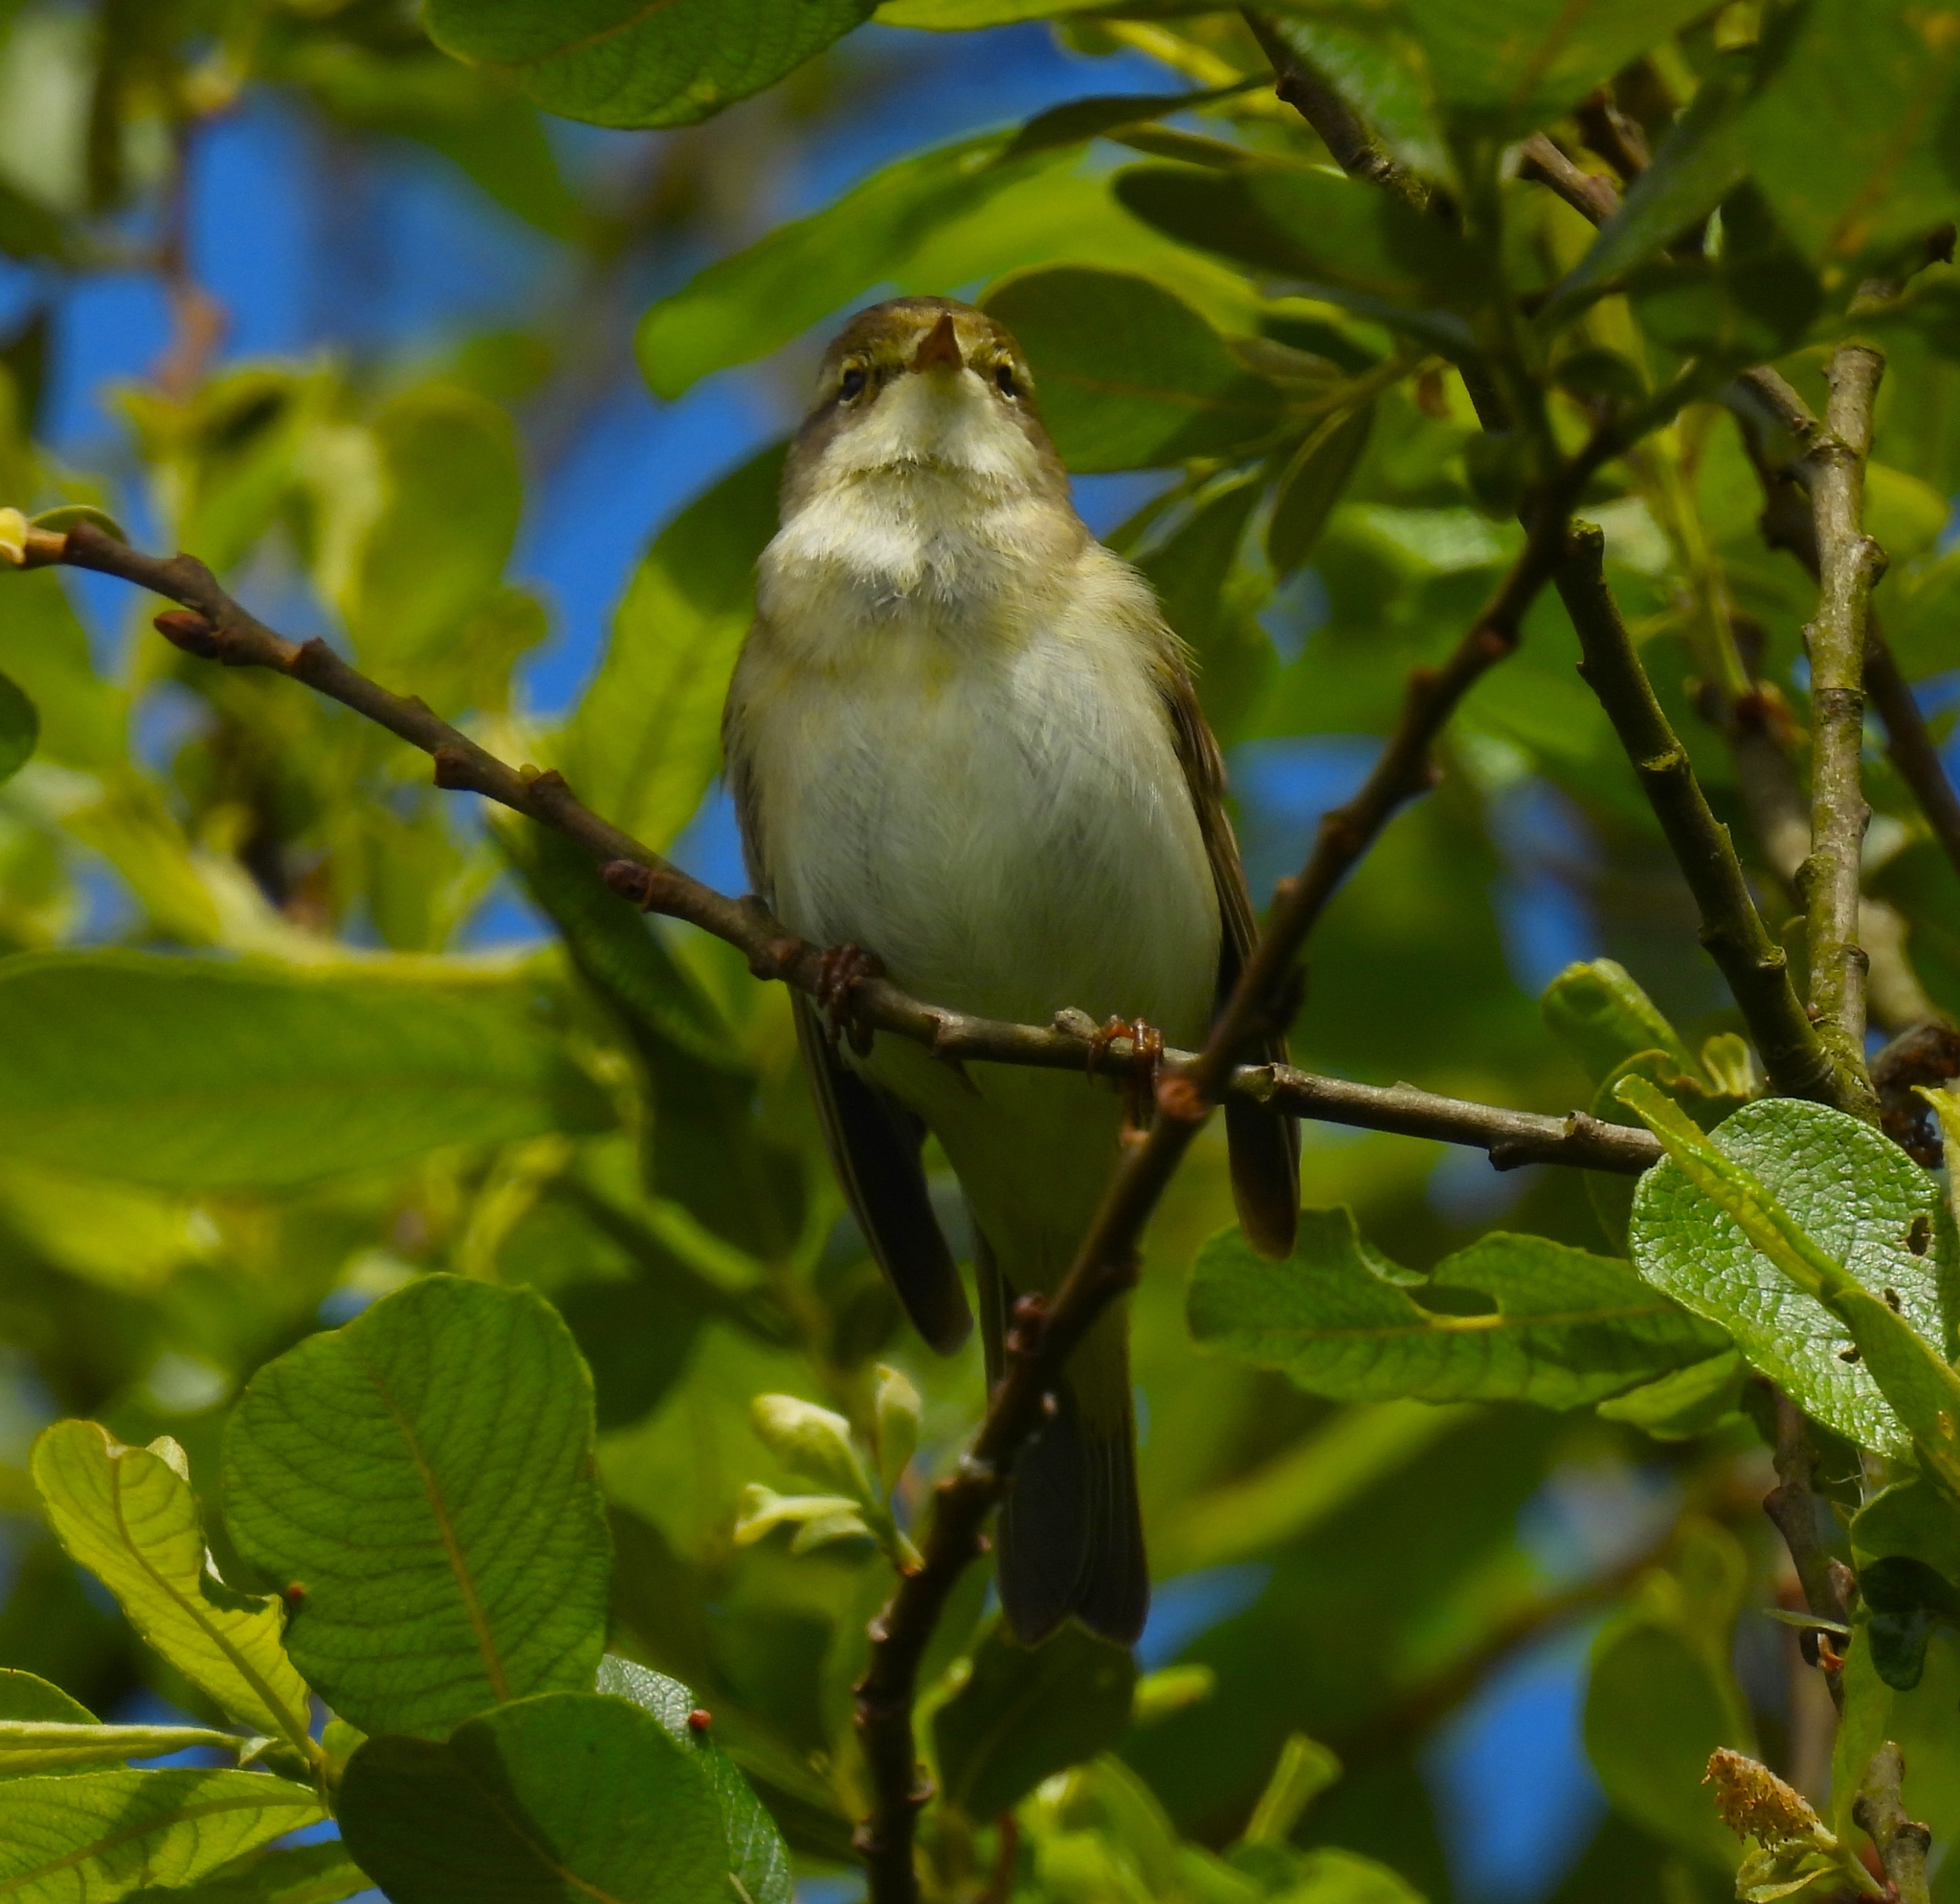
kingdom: Animalia
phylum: Chordata
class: Aves
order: Passeriformes
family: Phylloscopidae
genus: Phylloscopus
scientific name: Phylloscopus trochilus
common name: Willow warbler
